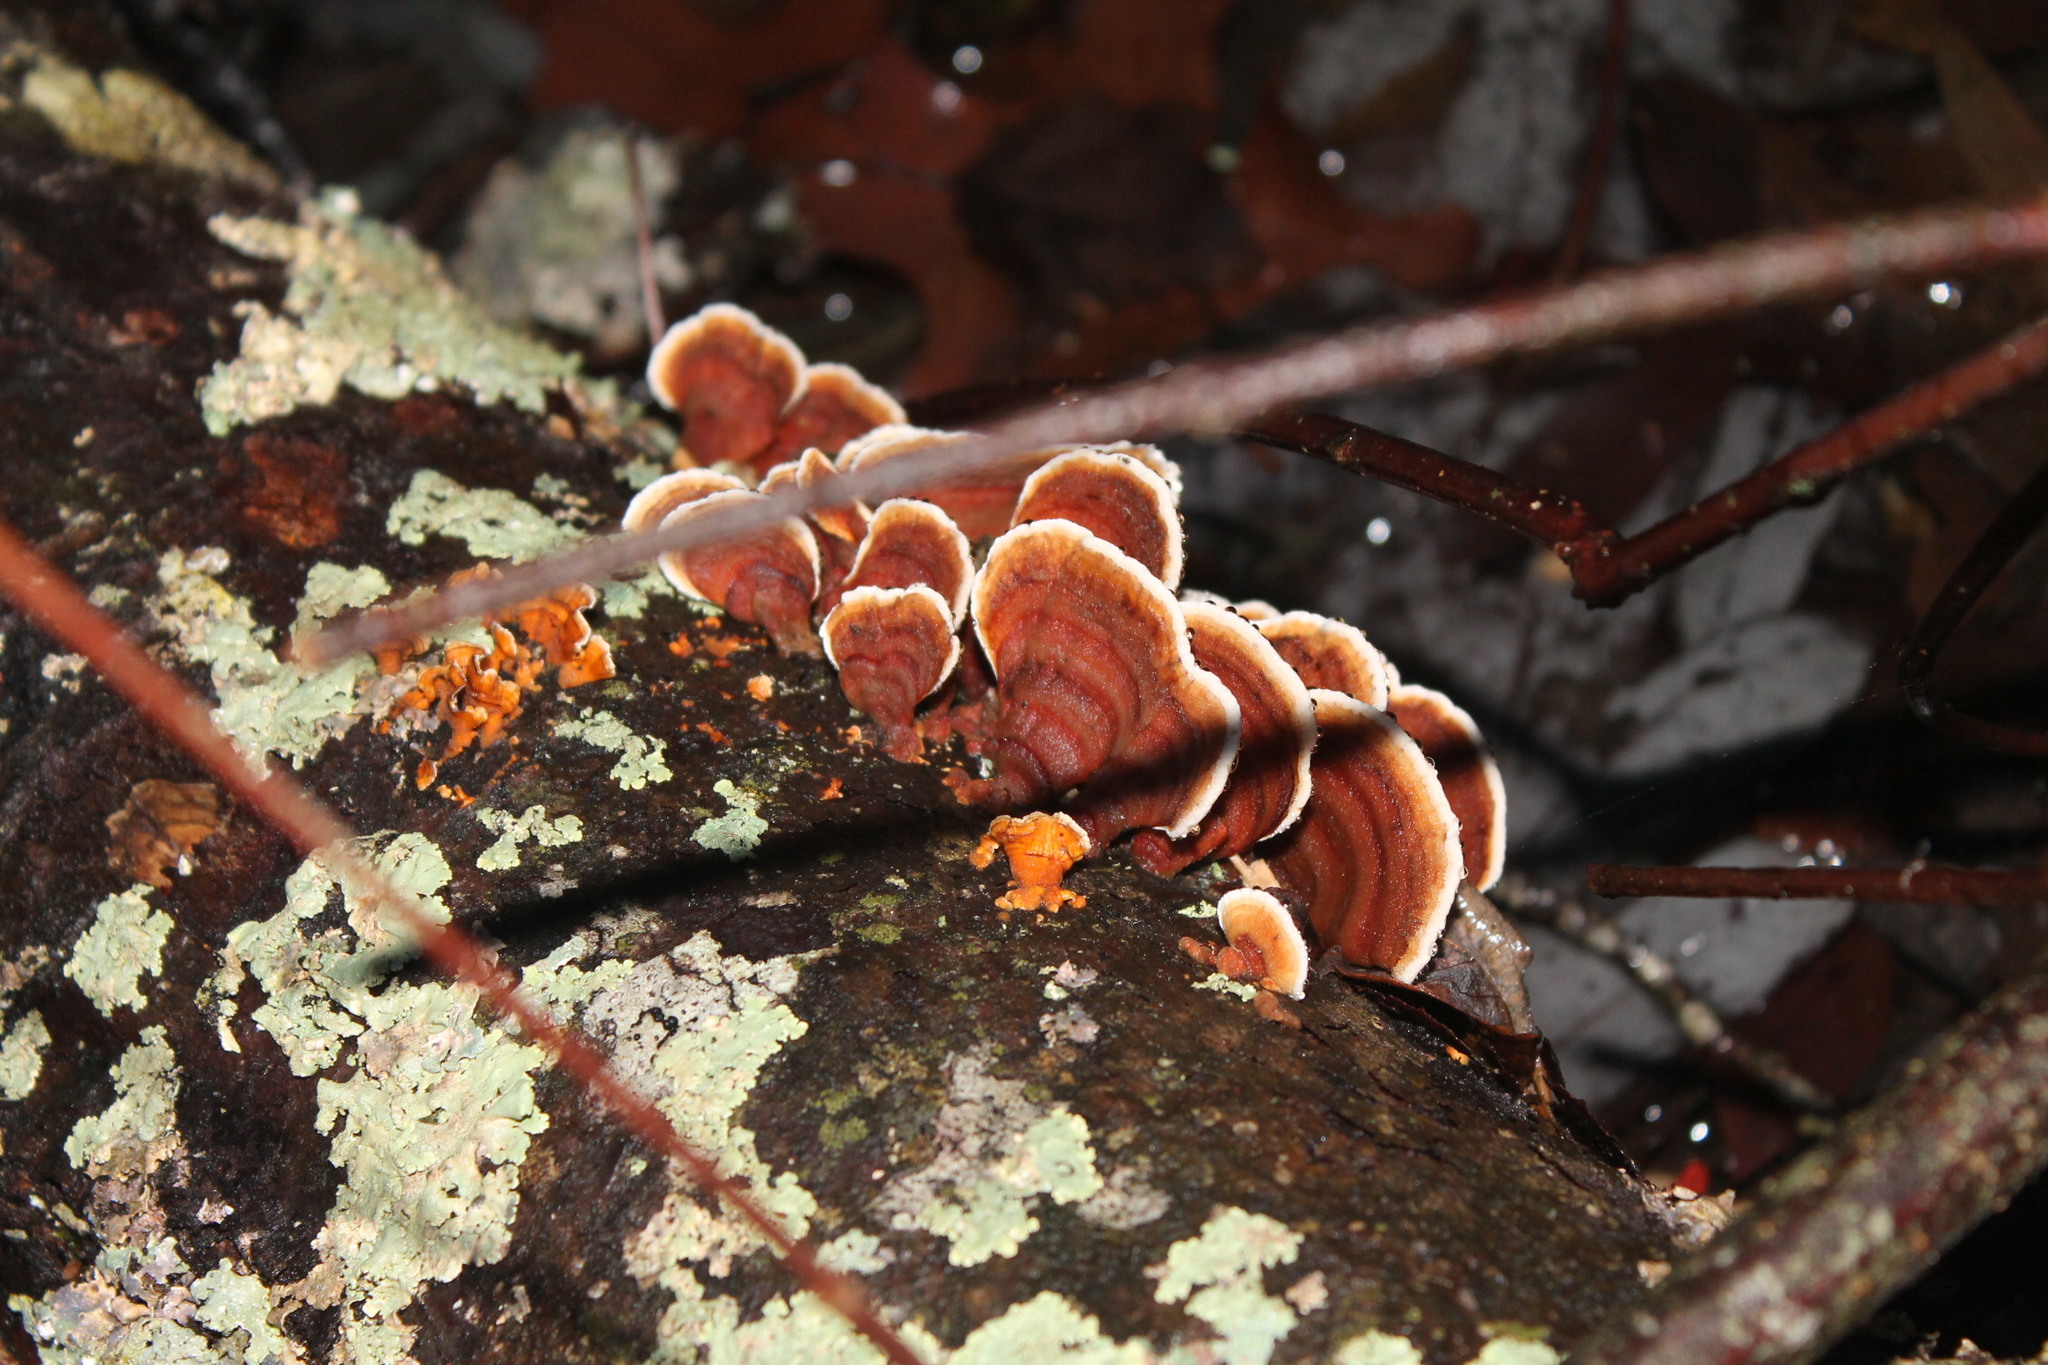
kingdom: Fungi
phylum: Basidiomycota
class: Agaricomycetes
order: Russulales
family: Stereaceae
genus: Stereum
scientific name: Stereum lobatum
